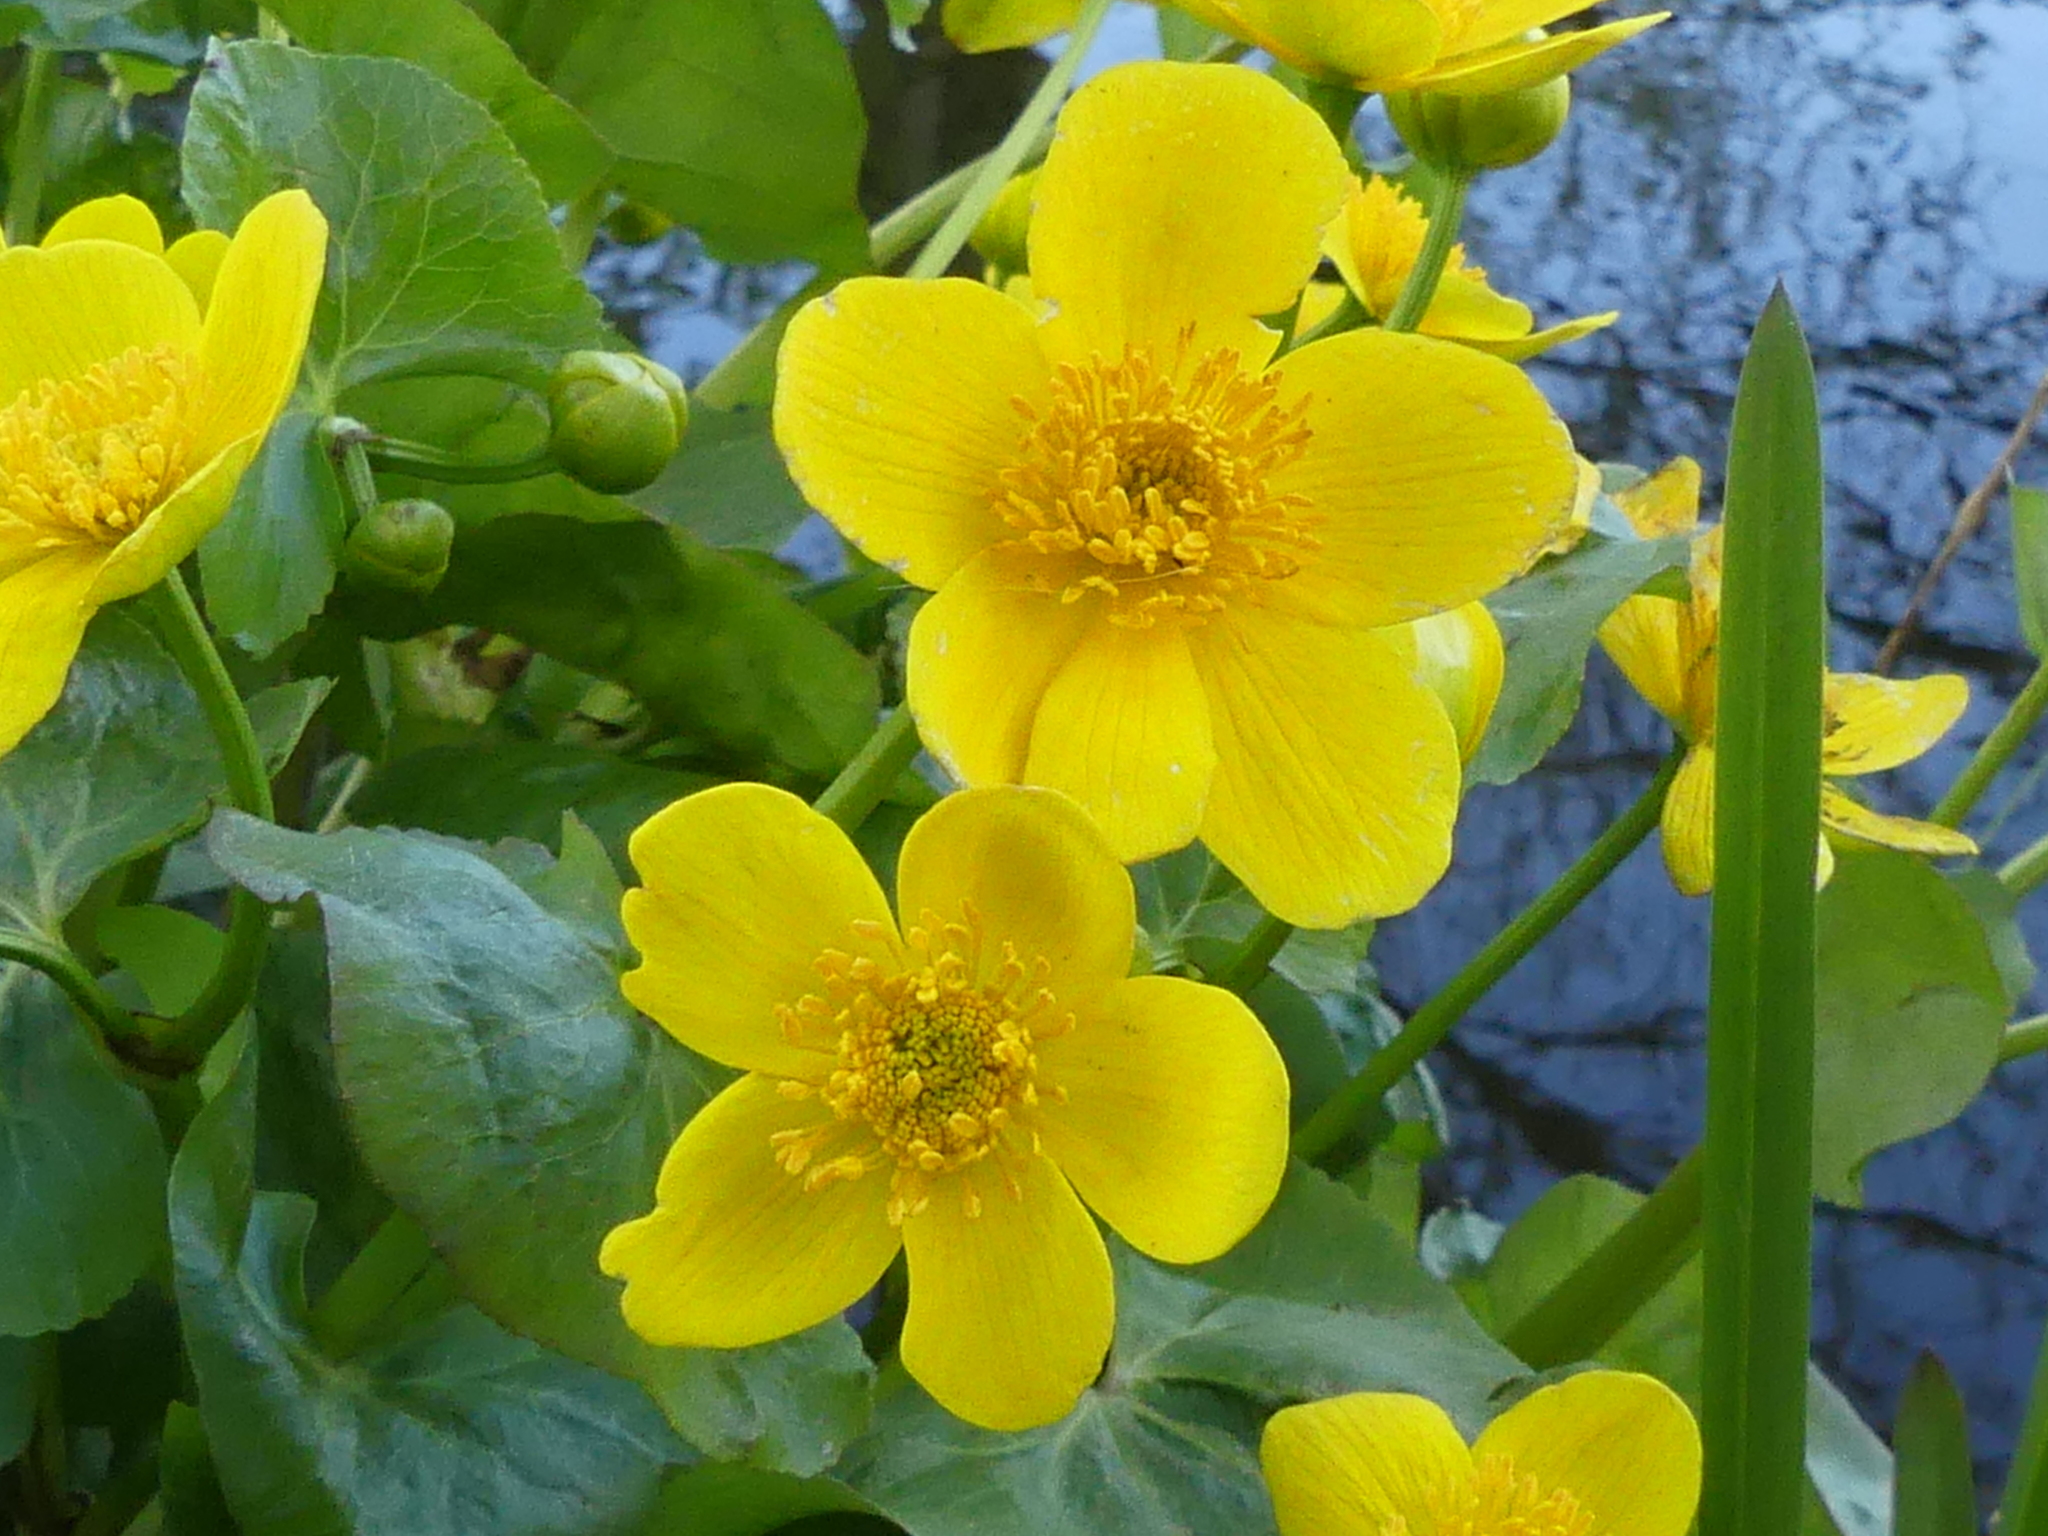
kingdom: Plantae
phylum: Tracheophyta
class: Magnoliopsida
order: Ranunculales
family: Ranunculaceae
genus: Caltha
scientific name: Caltha palustris
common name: Marsh marigold
